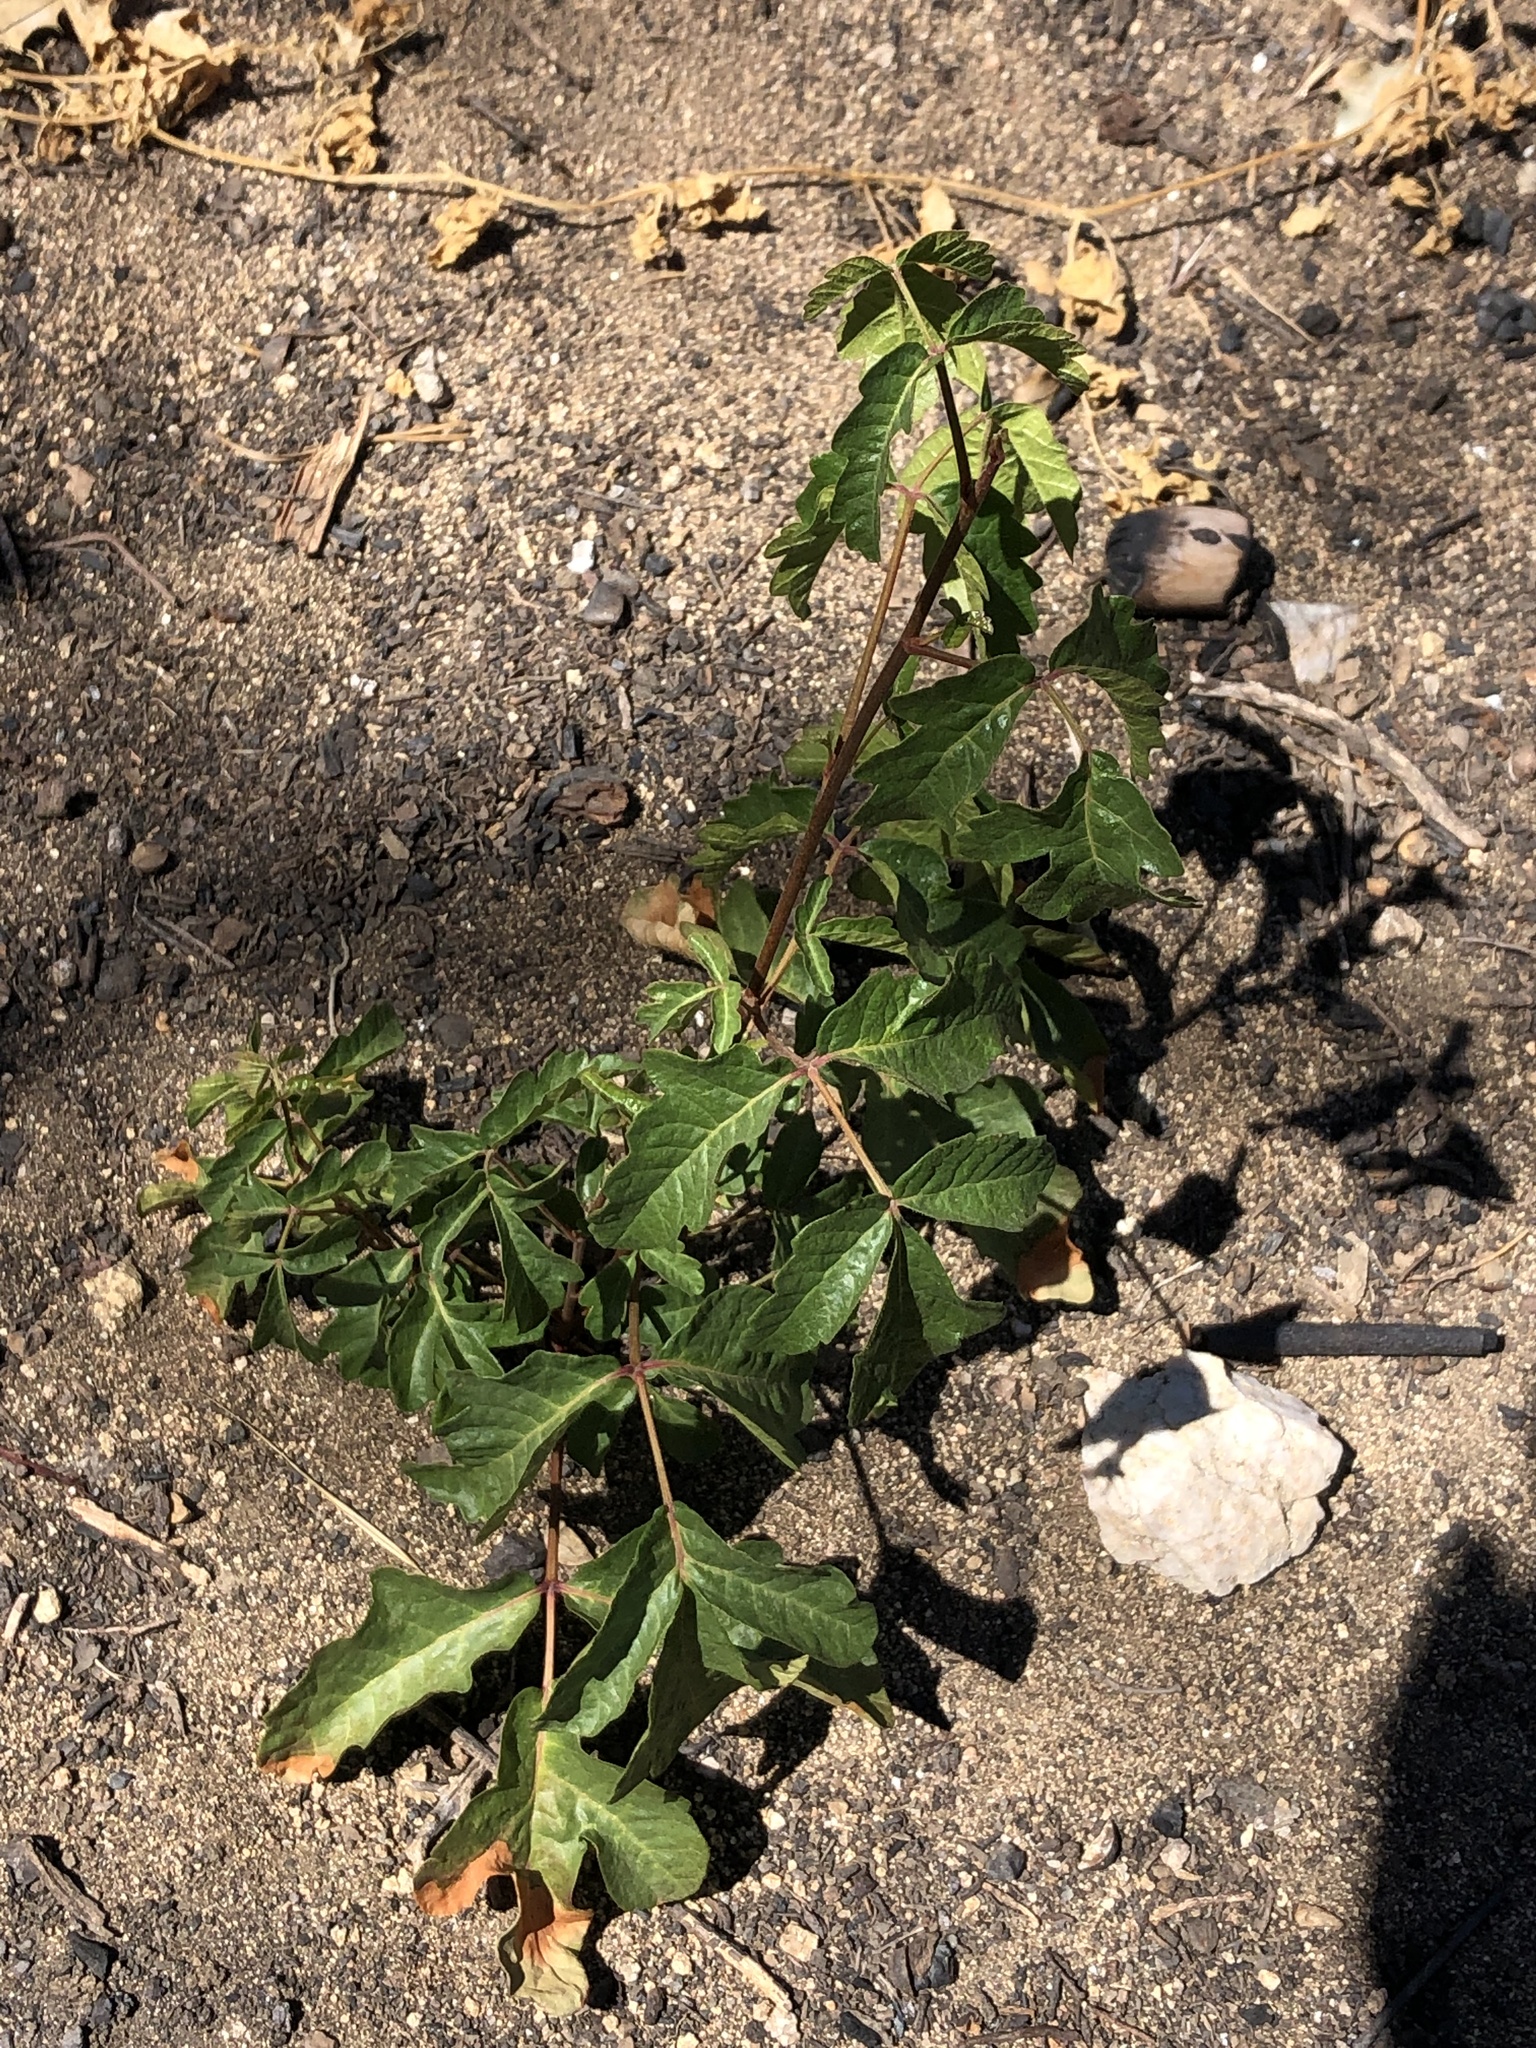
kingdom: Plantae
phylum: Tracheophyta
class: Magnoliopsida
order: Sapindales
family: Anacardiaceae
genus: Toxicodendron
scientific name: Toxicodendron diversilobum
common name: Pacific poison-oak
